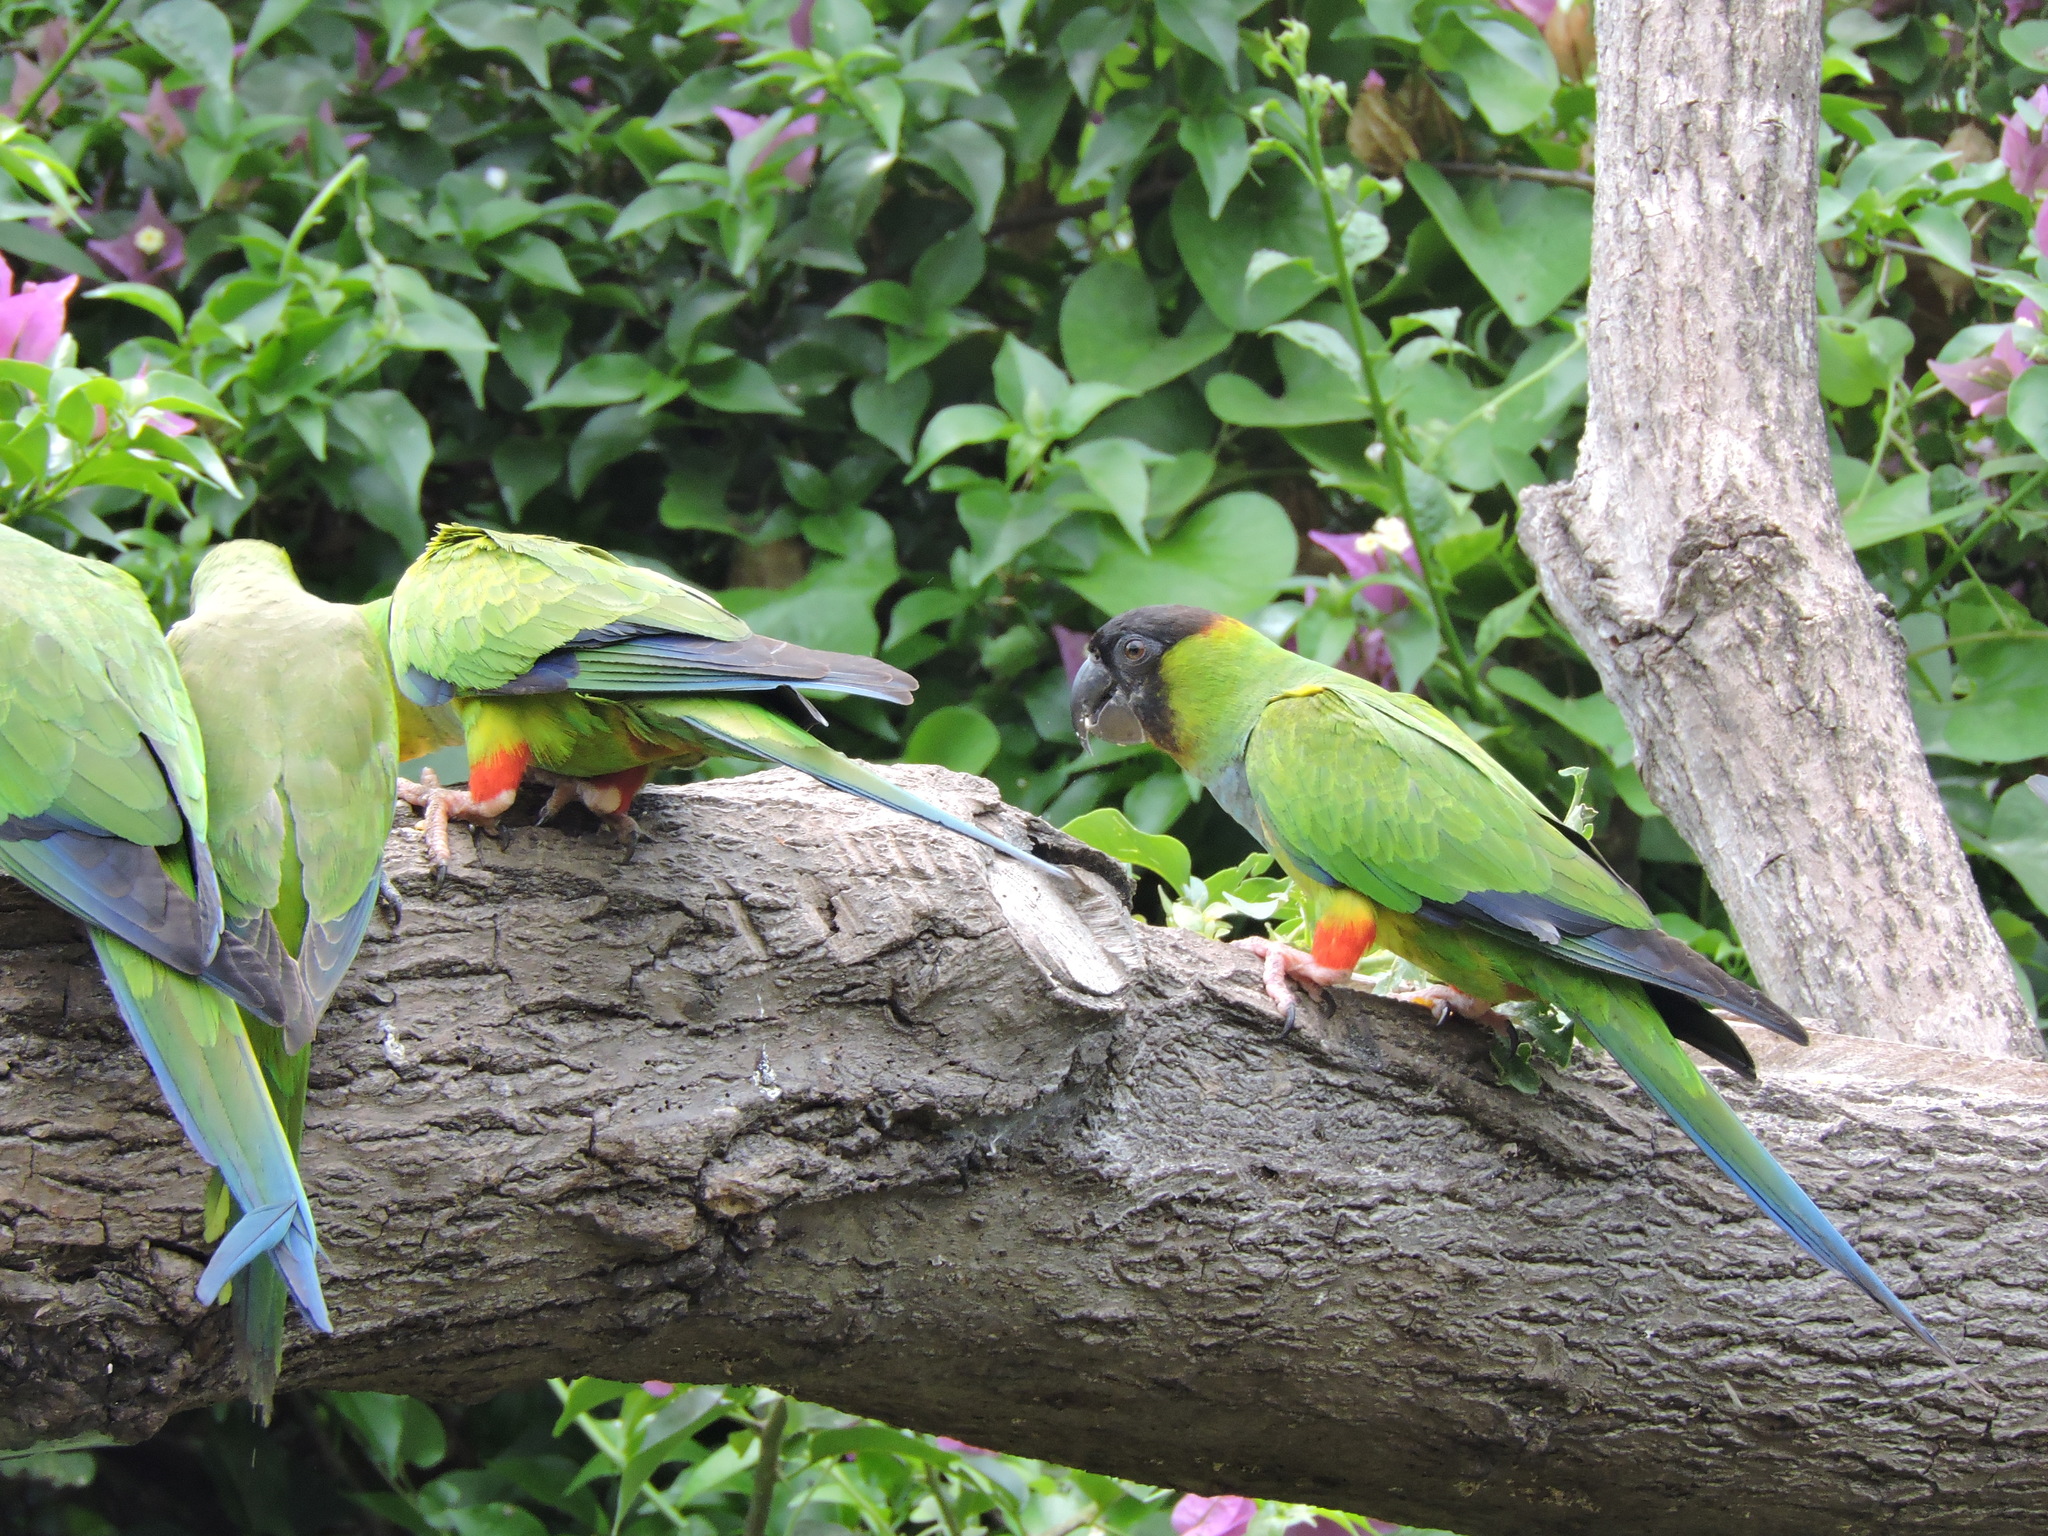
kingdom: Animalia
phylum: Chordata
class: Aves
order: Psittaciformes
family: Psittacidae
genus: Nandayus
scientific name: Nandayus nenday
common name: Nanday parakeet
